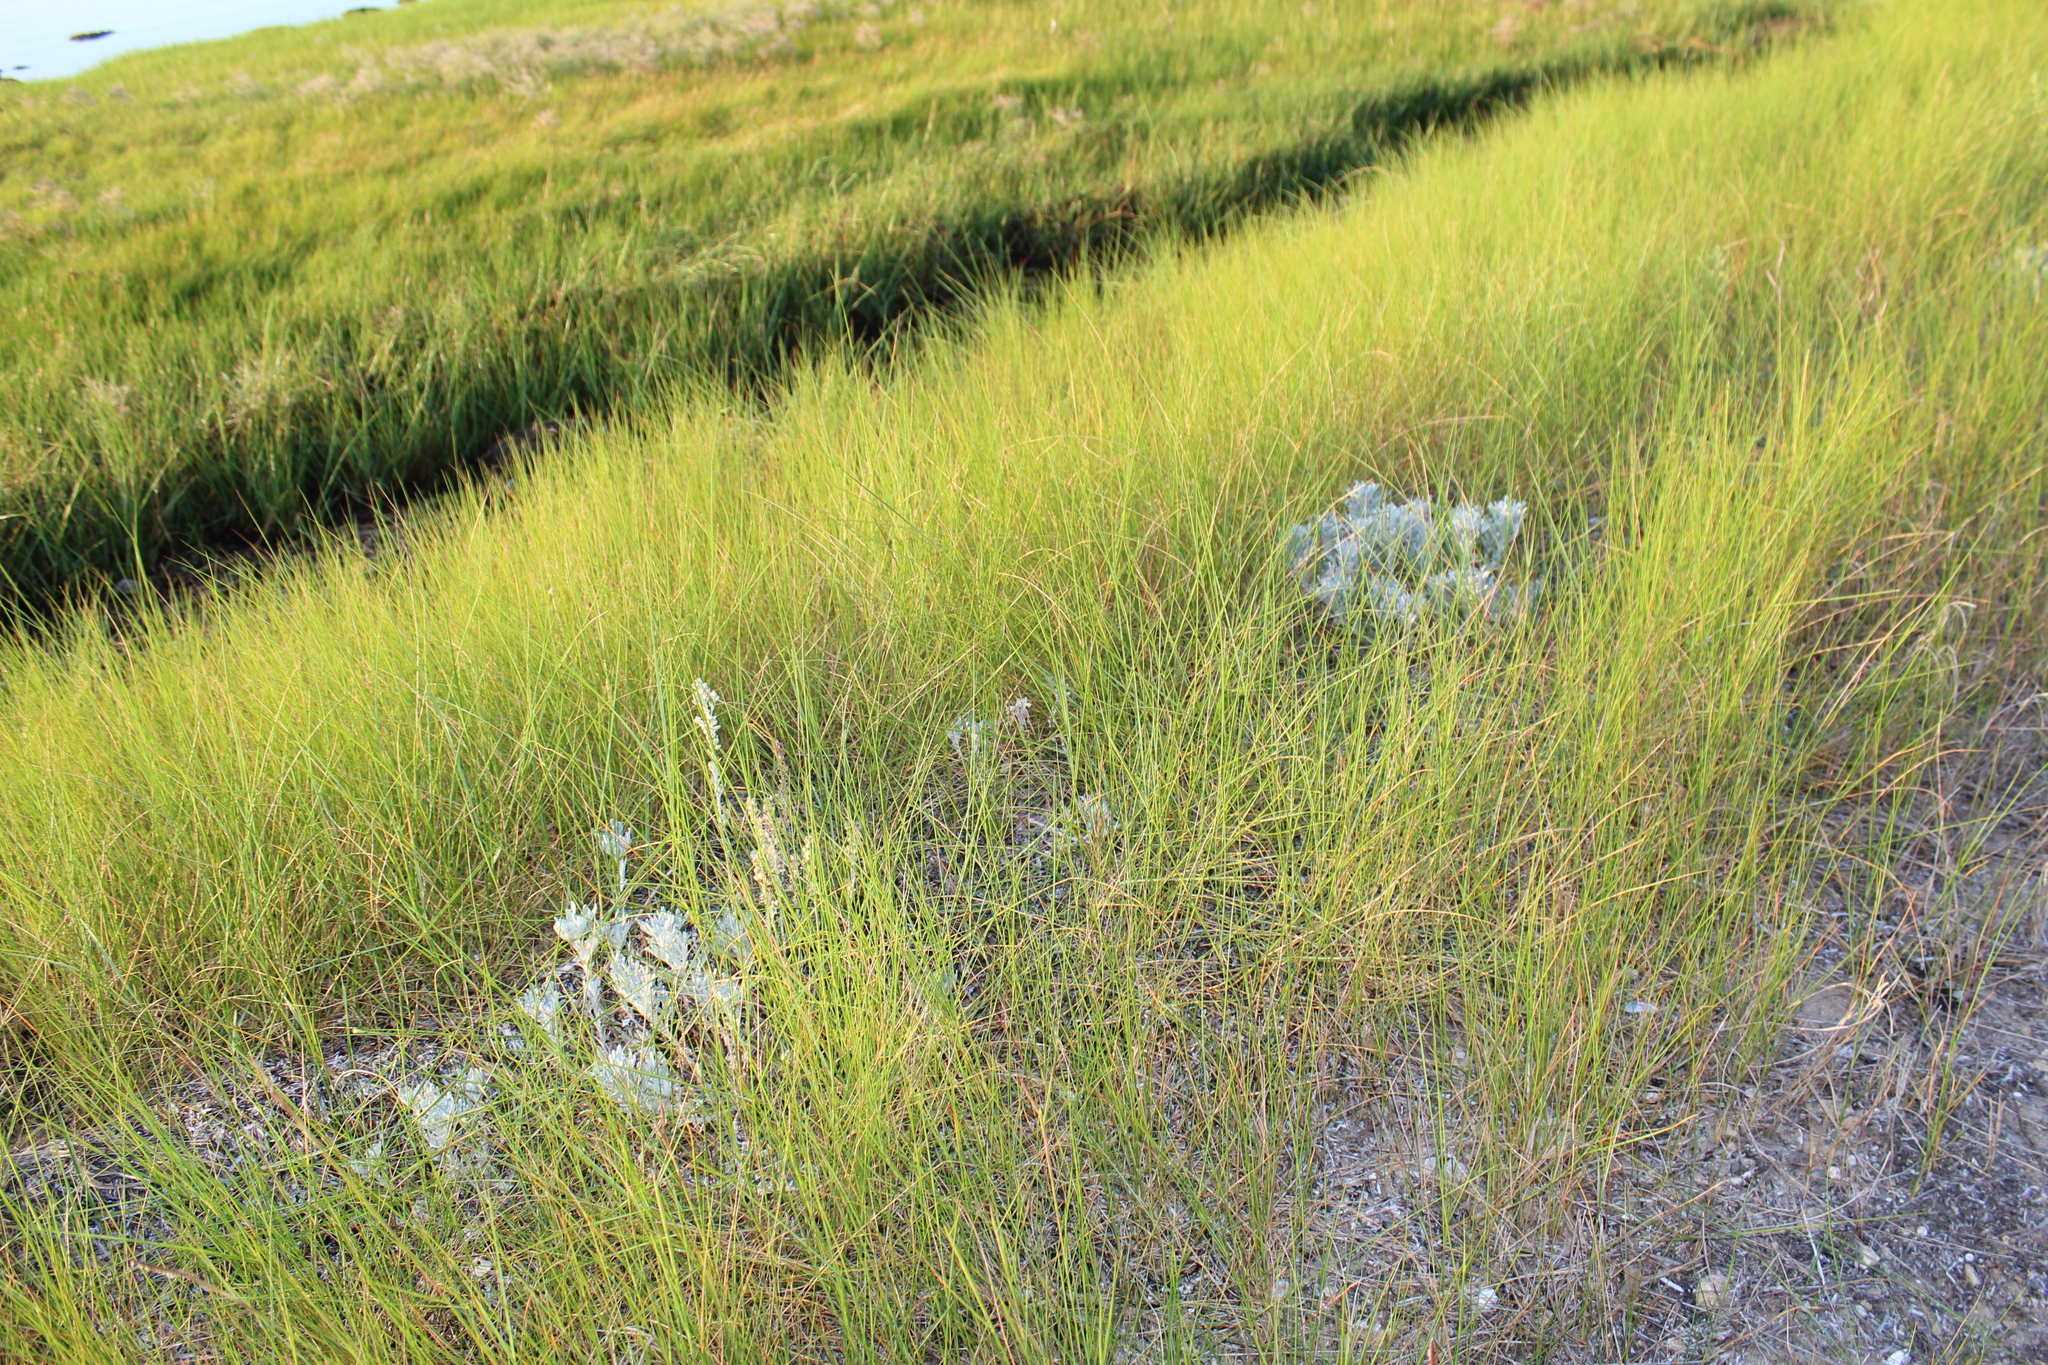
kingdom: Plantae
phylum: Tracheophyta
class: Magnoliopsida
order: Asterales
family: Asteraceae
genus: Artemisia
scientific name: Artemisia stelleriana
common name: Beach wormwood
